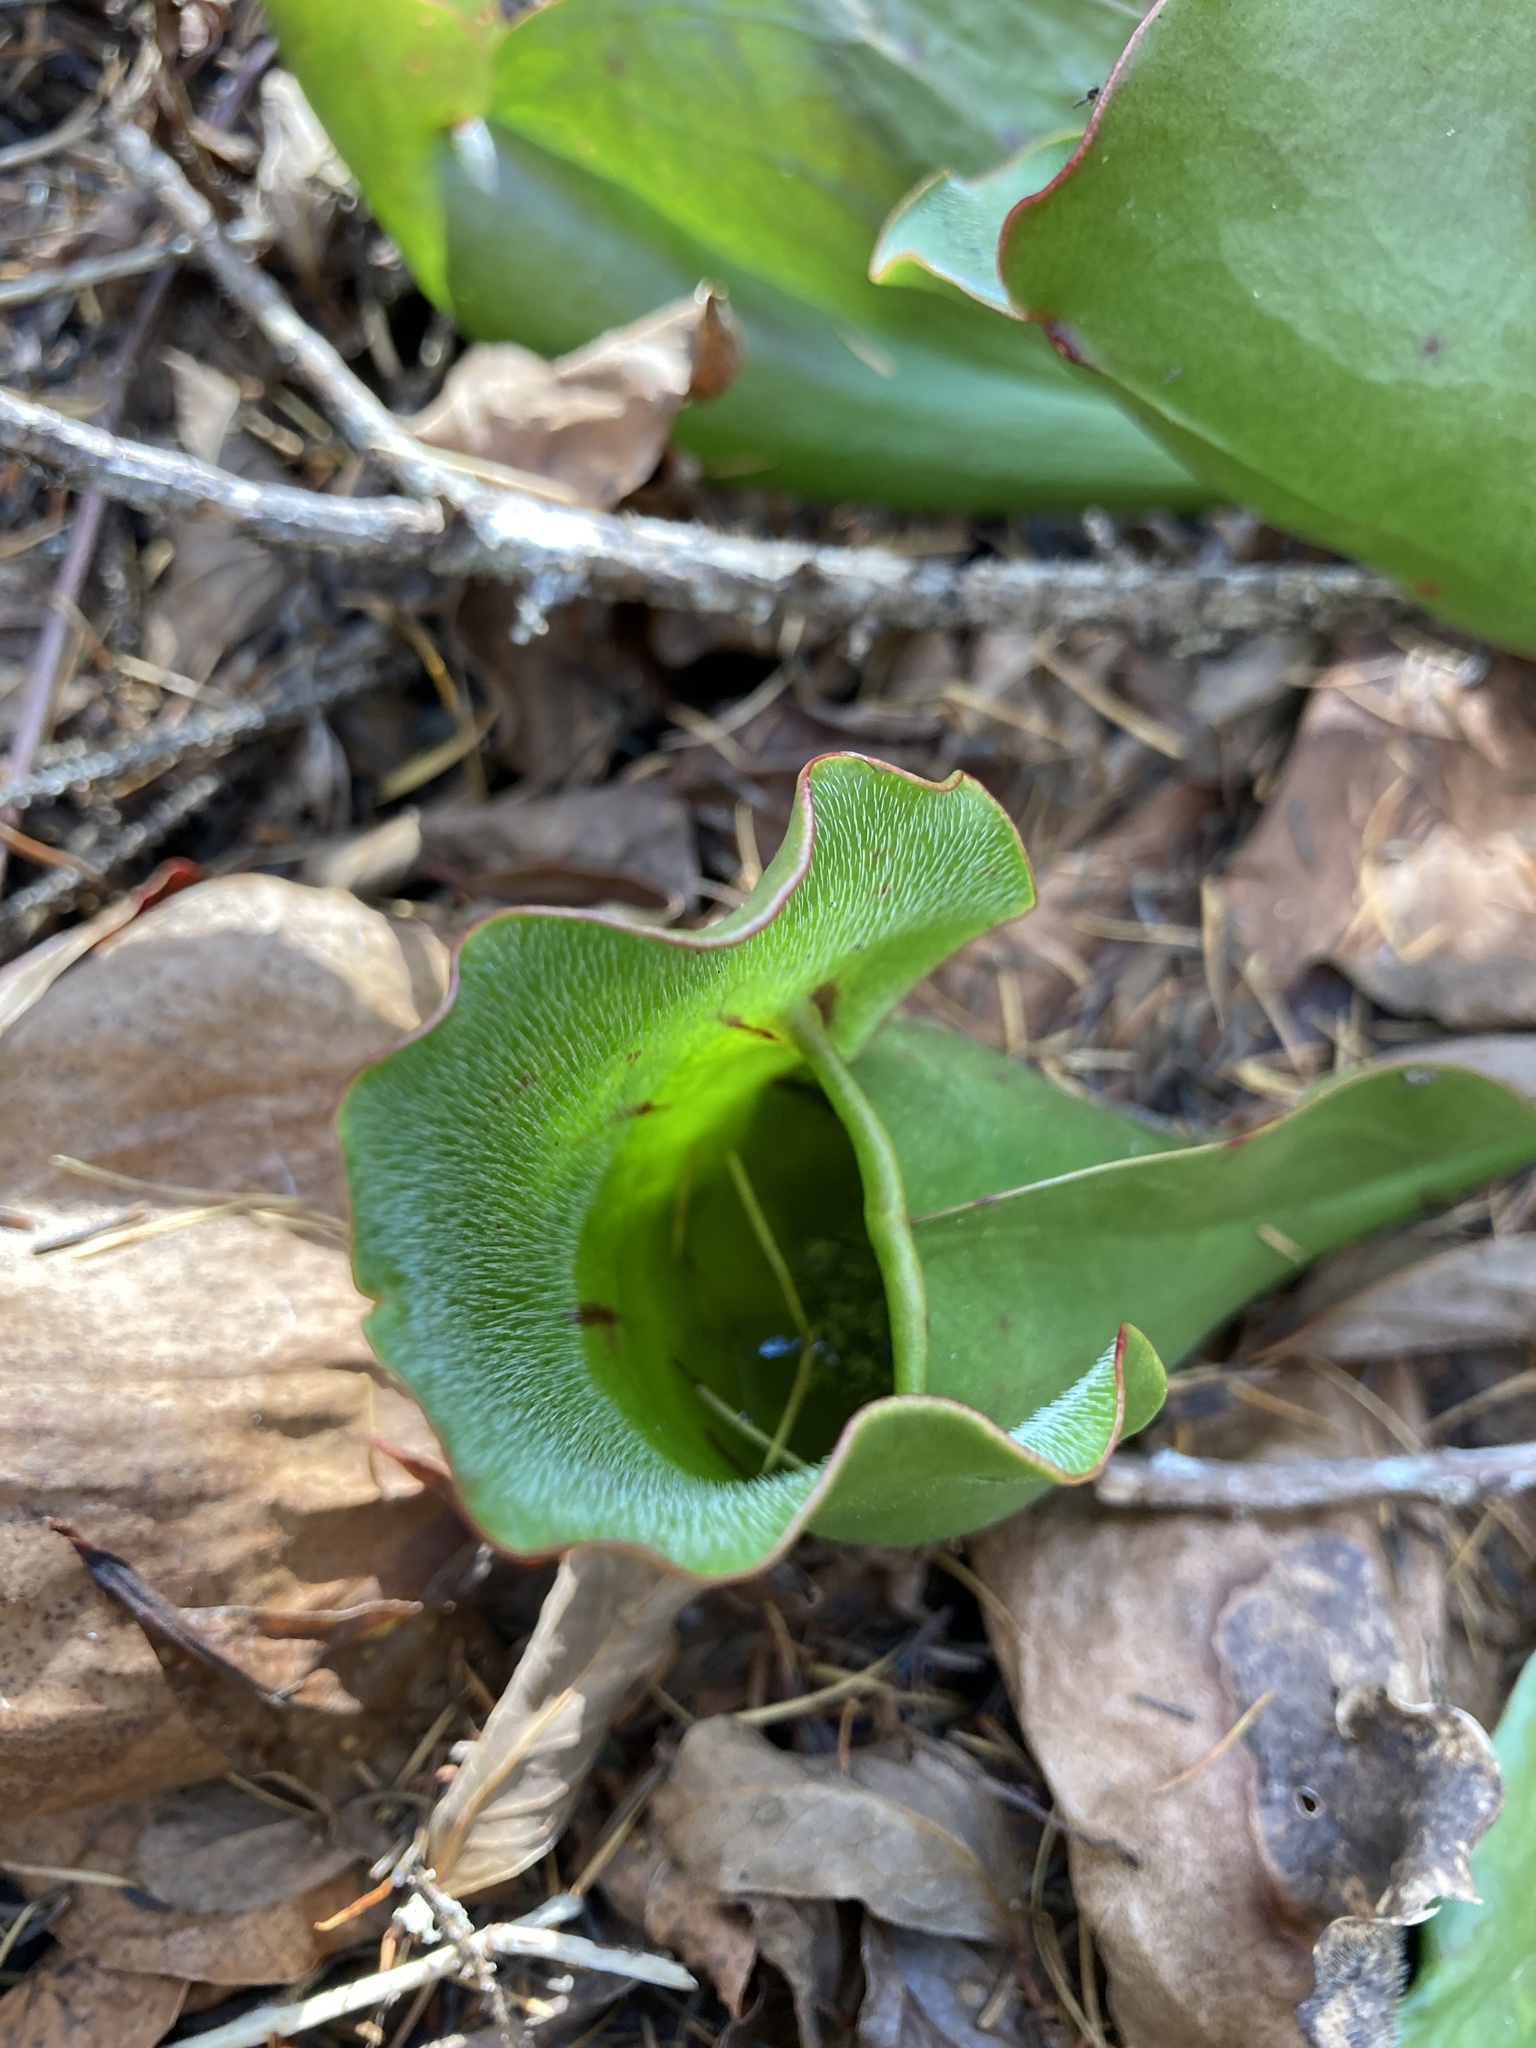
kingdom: Plantae
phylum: Tracheophyta
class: Magnoliopsida
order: Ericales
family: Sarraceniaceae
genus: Sarracenia
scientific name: Sarracenia purpurea
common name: Pitcherplant
